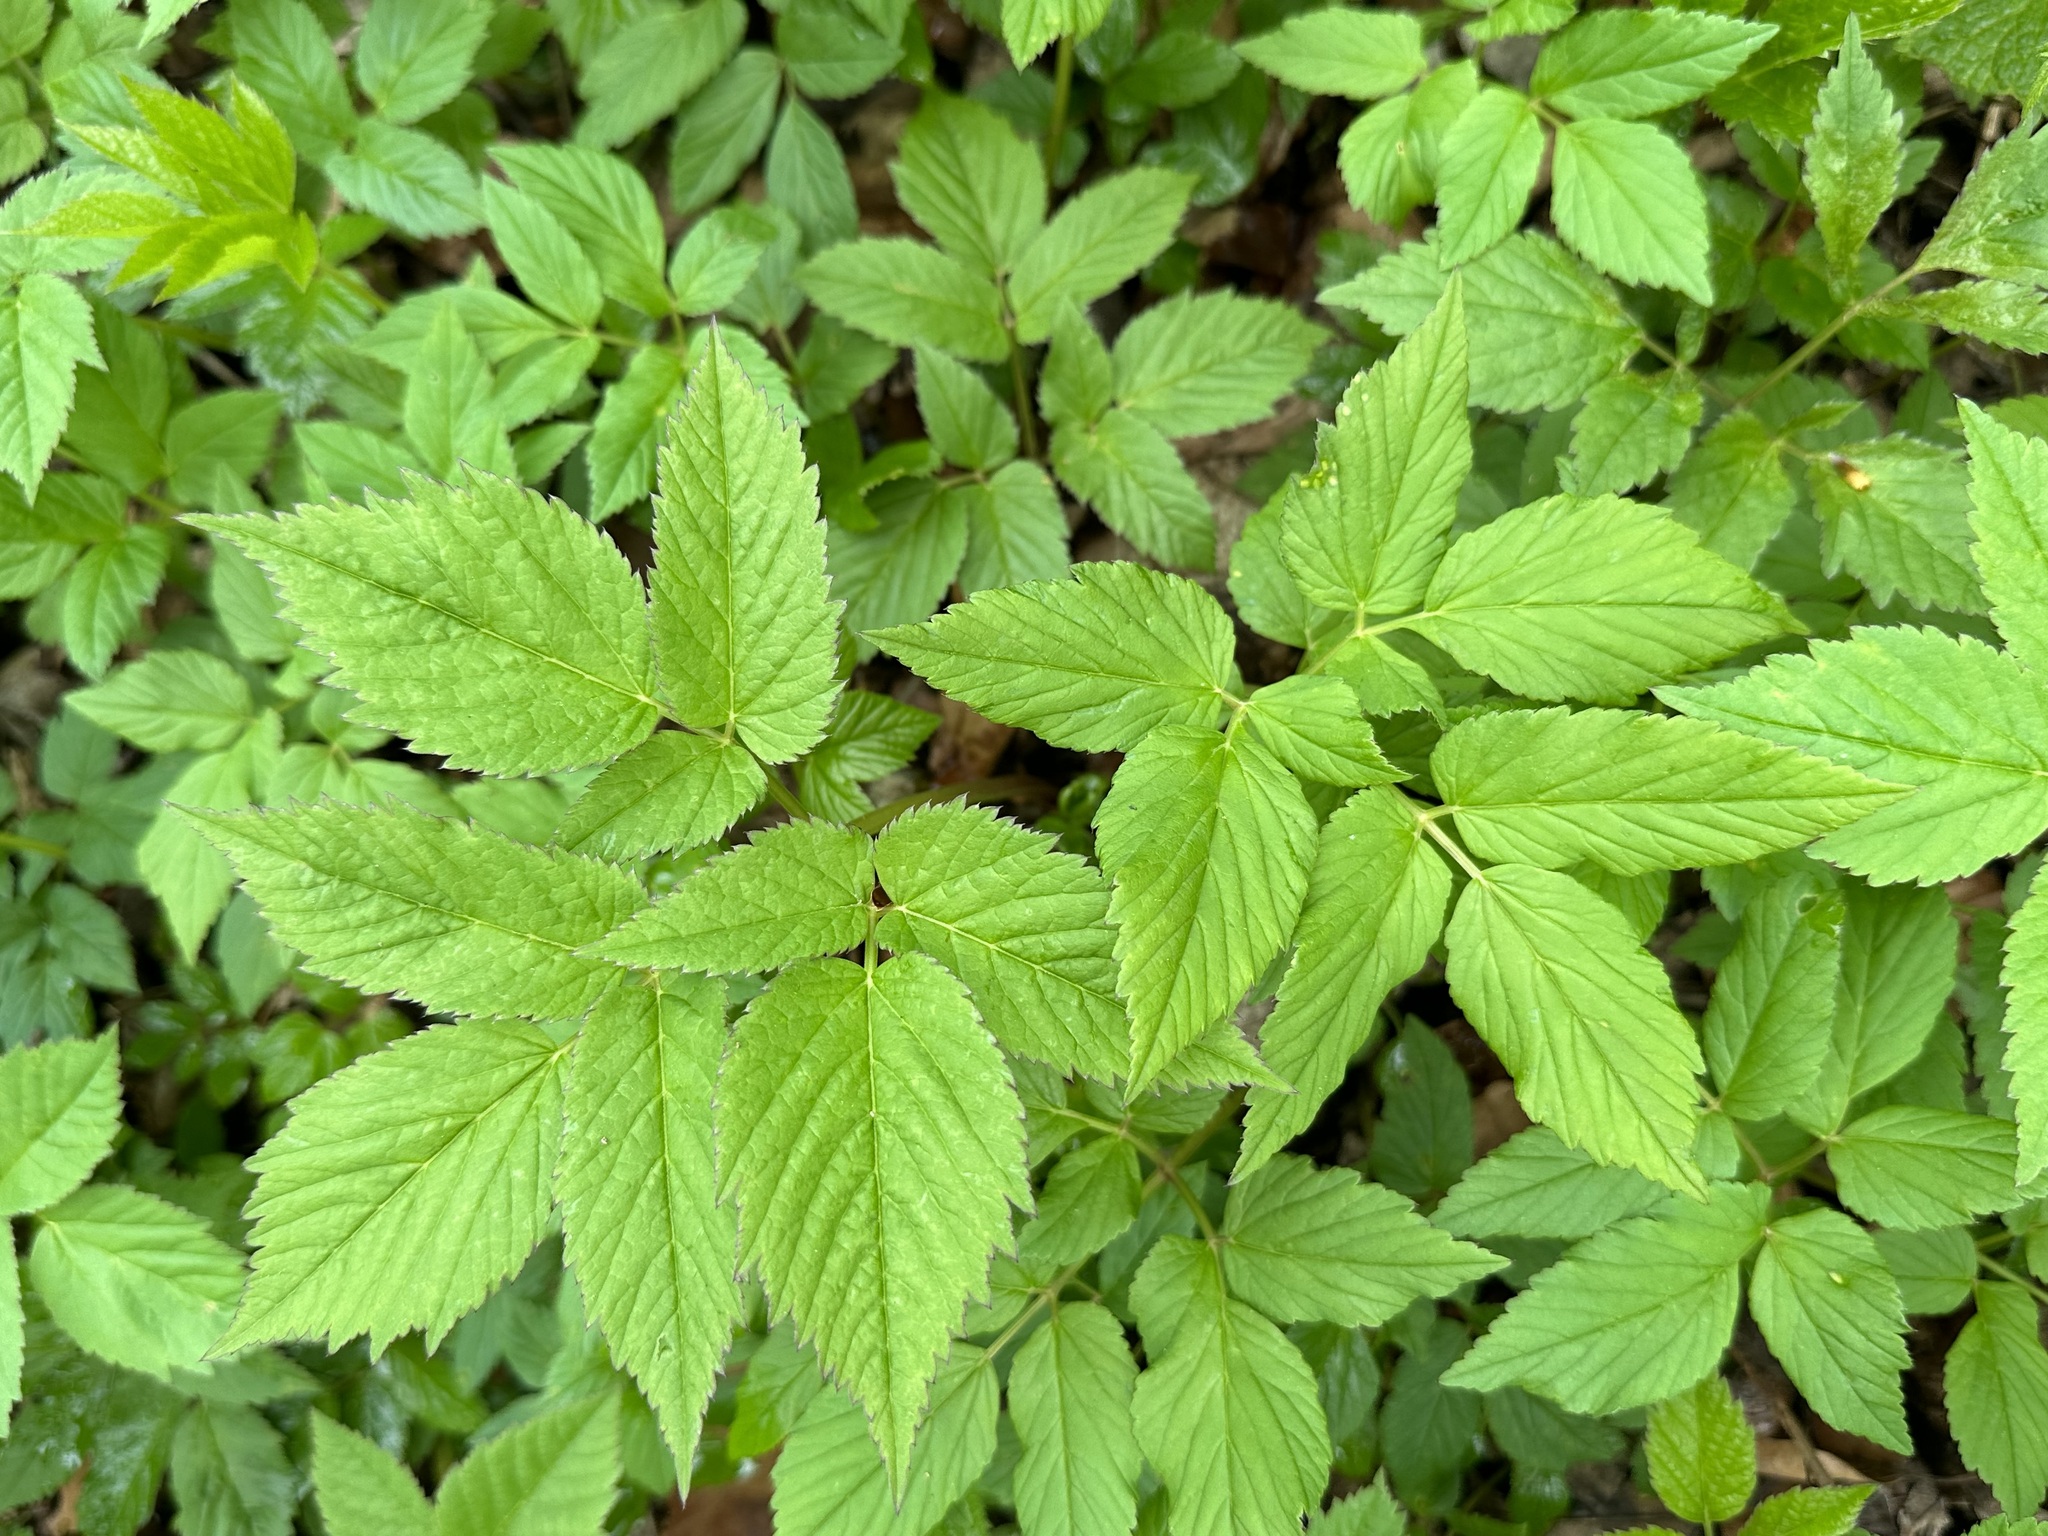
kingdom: Plantae
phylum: Tracheophyta
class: Magnoliopsida
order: Apiales
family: Apiaceae
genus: Aegopodium
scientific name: Aegopodium podagraria
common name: Ground-elder
